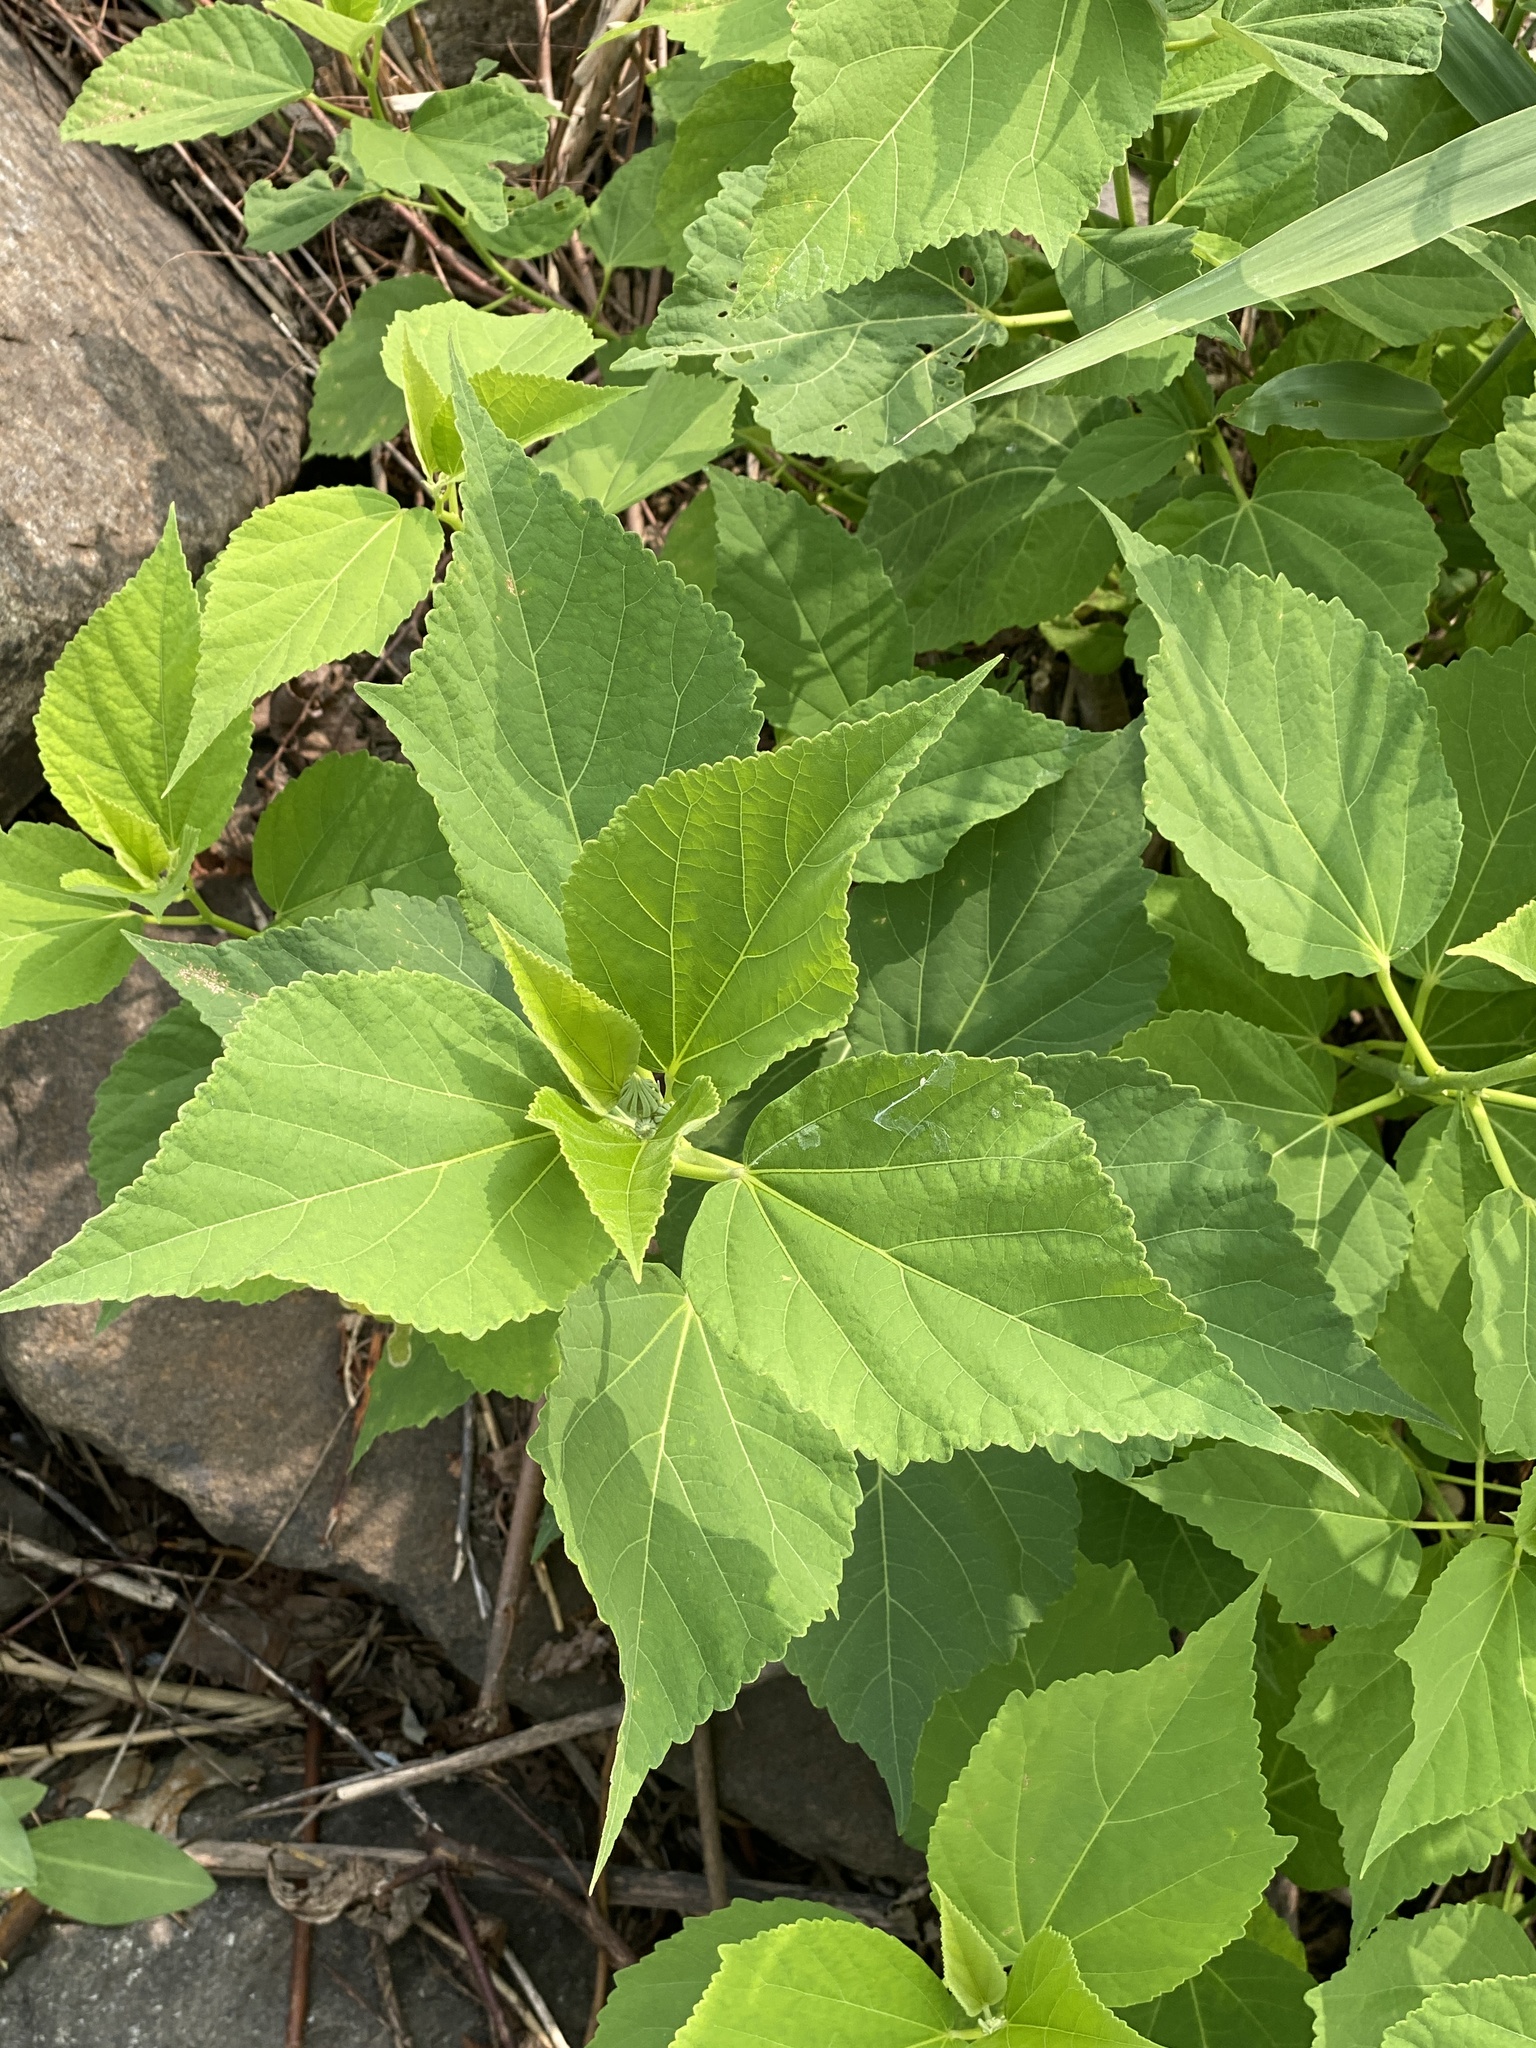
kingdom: Plantae
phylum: Tracheophyta
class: Magnoliopsida
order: Malvales
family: Malvaceae
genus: Hibiscus
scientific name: Hibiscus moscheutos
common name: Common rose-mallow
